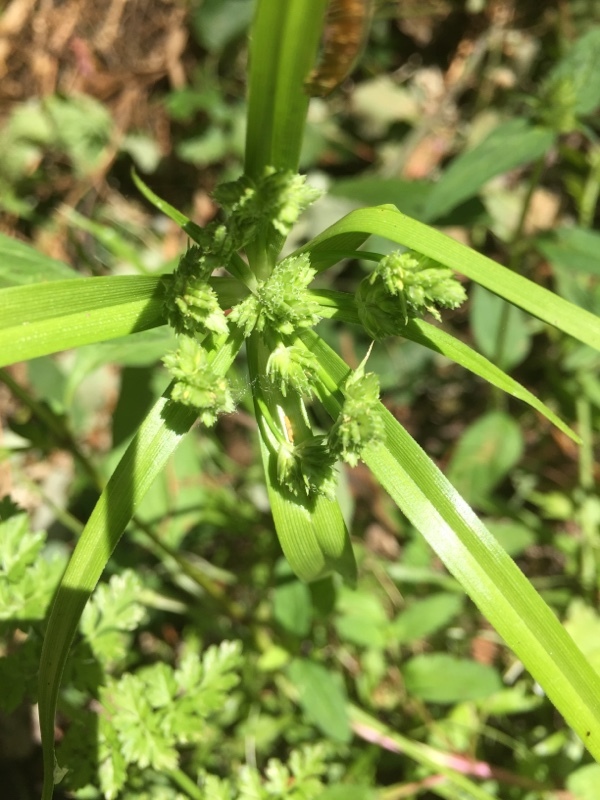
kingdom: Plantae
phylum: Tracheophyta
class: Liliopsida
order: Poales
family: Cyperaceae
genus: Cyperus
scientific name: Cyperus eragrostis
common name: Tall flatsedge
